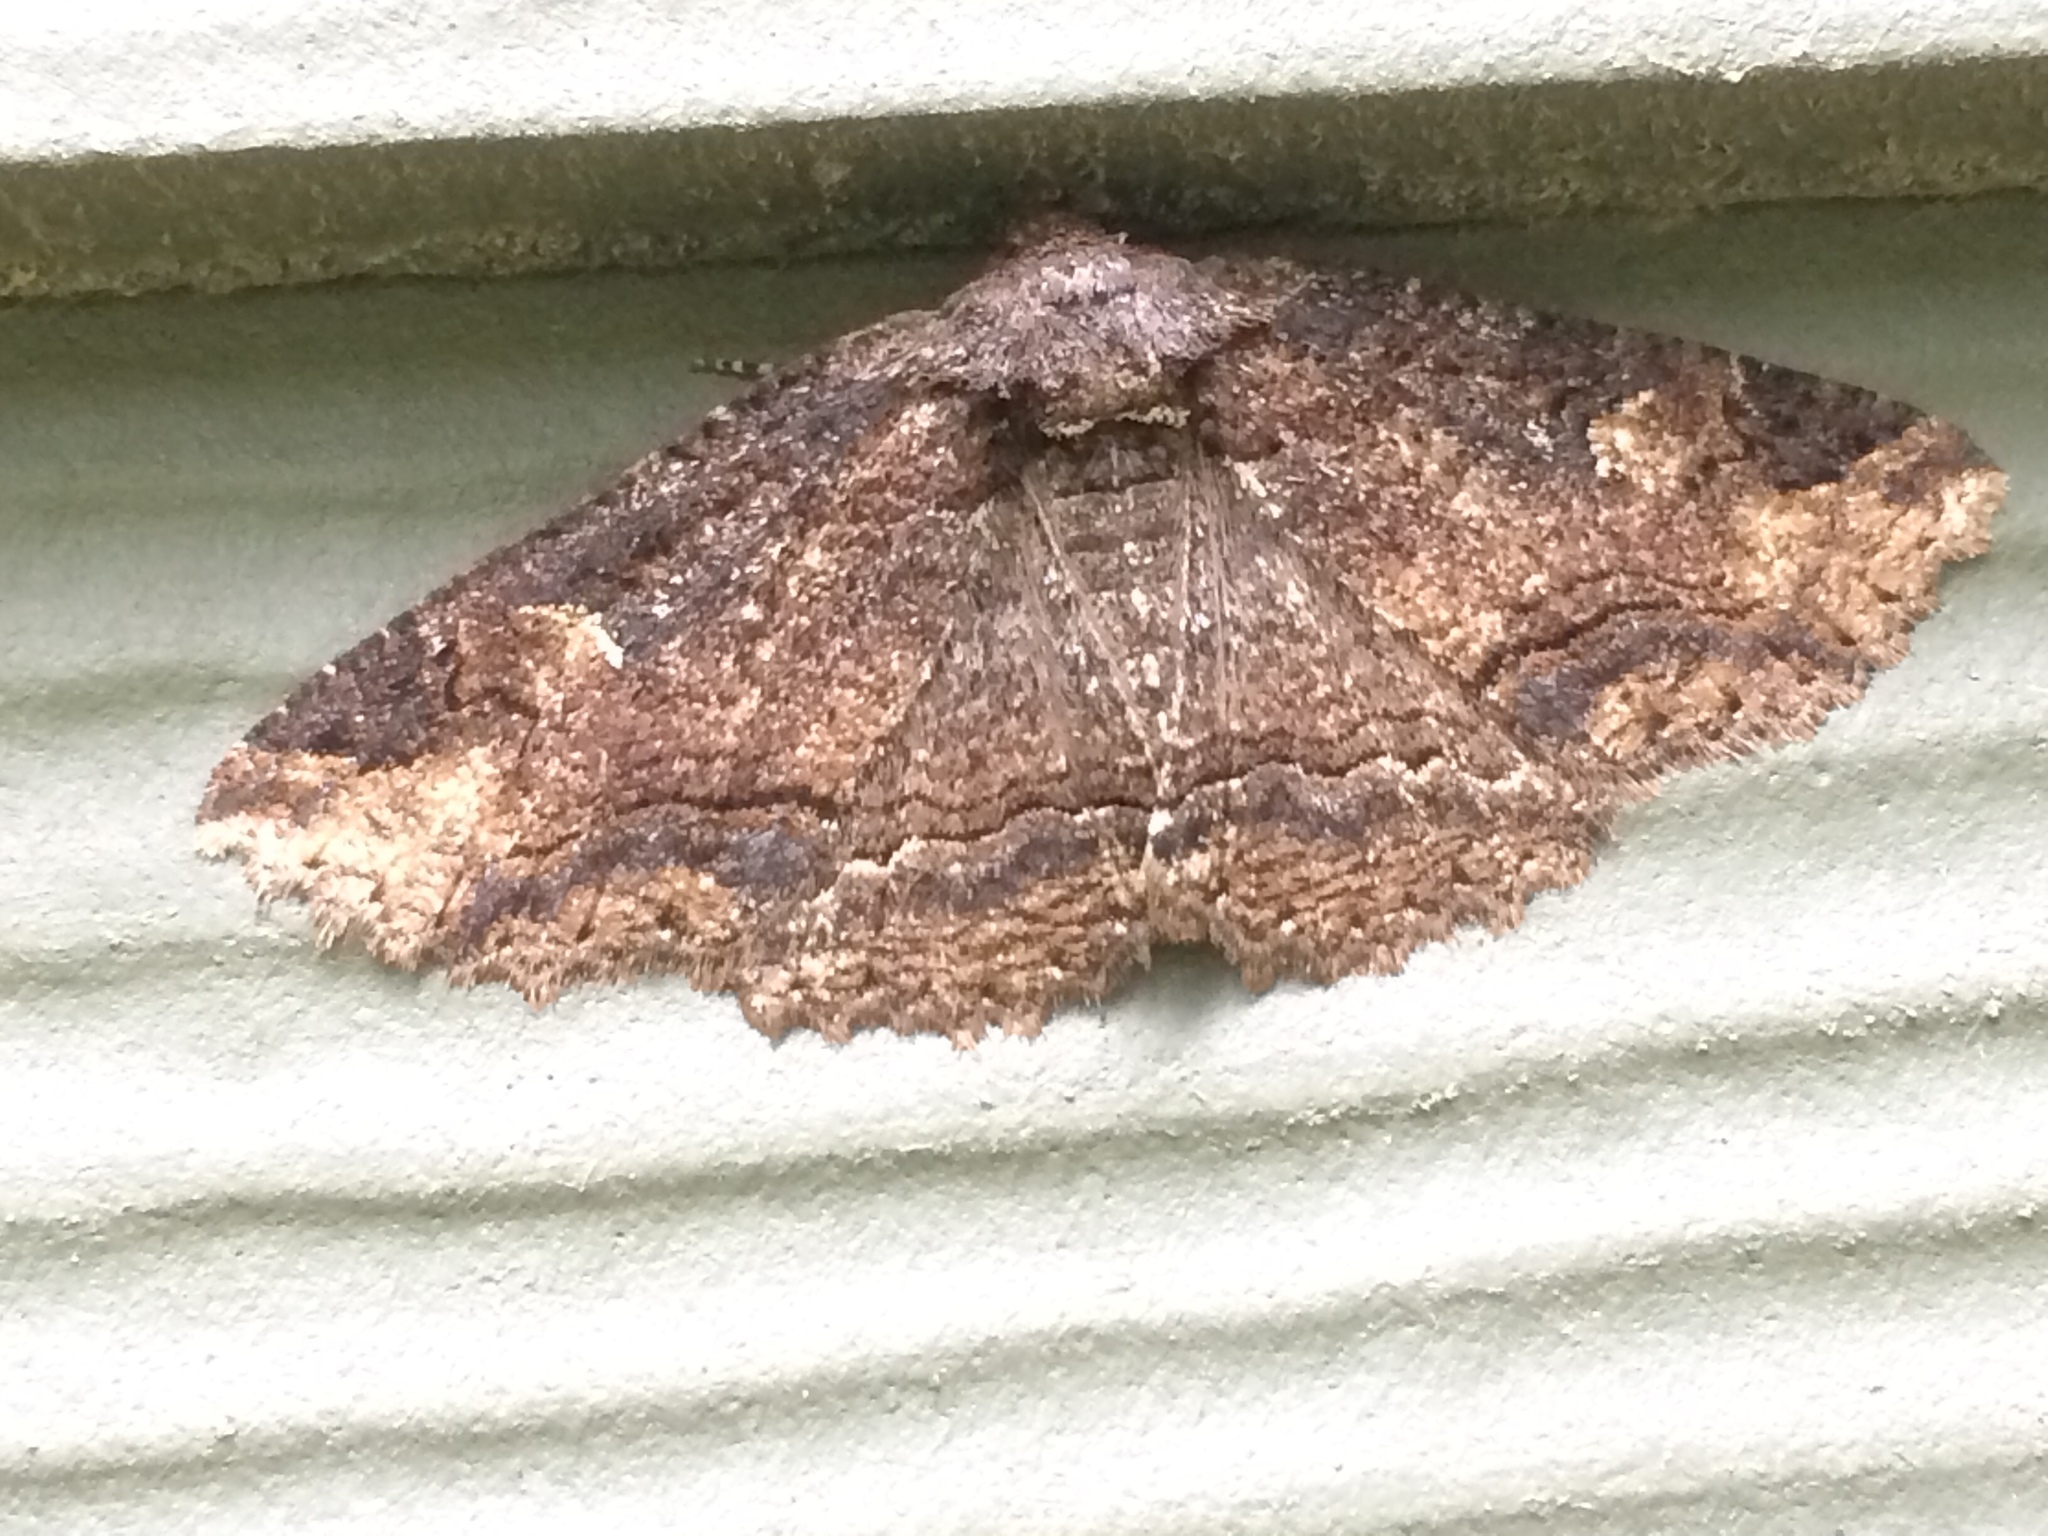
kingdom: Animalia
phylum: Arthropoda
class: Insecta
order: Lepidoptera
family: Erebidae
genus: Zale
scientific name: Zale lunata
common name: Lunate zale moth
